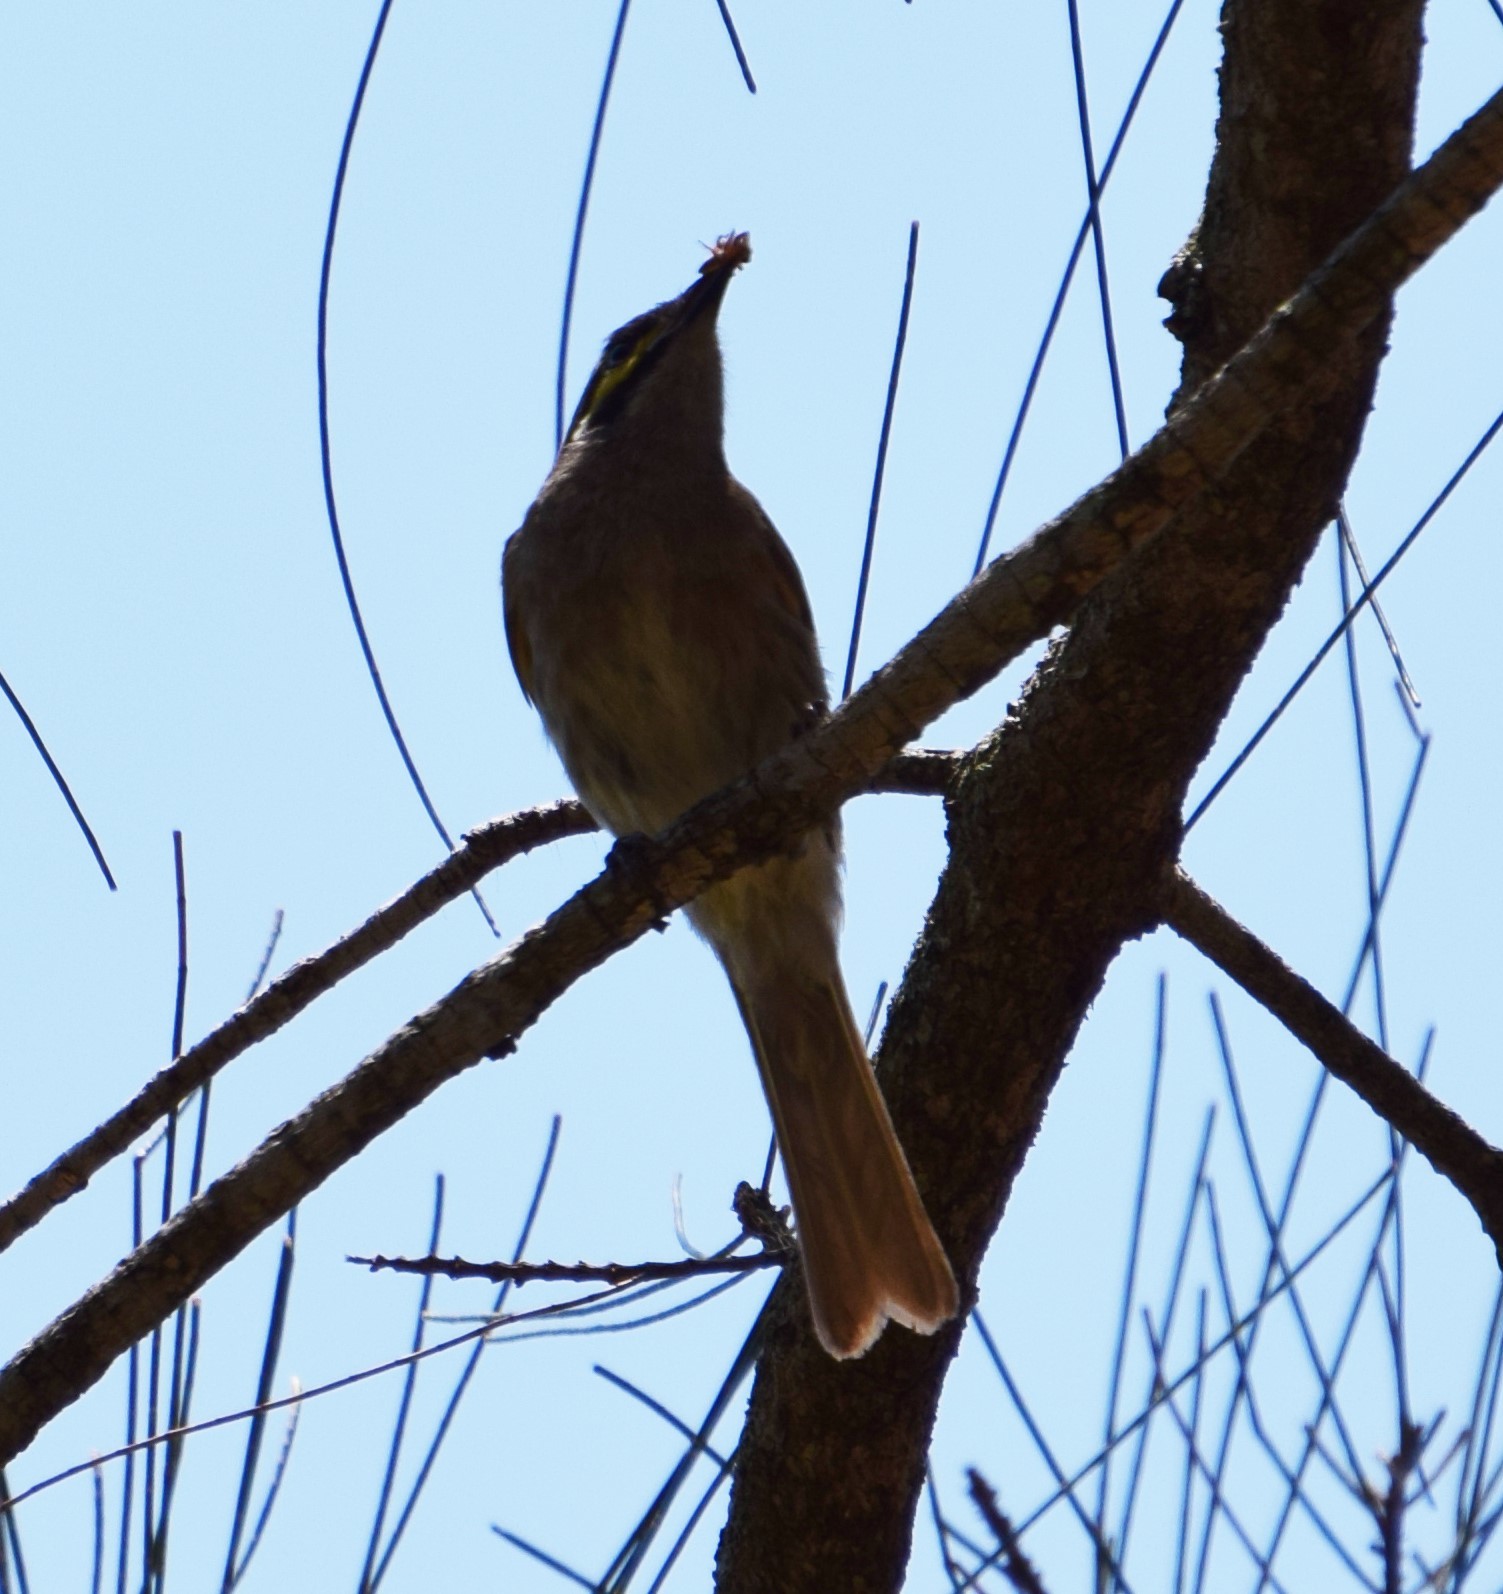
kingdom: Animalia
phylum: Chordata
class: Aves
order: Passeriformes
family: Meliphagidae
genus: Caligavis
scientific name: Caligavis chrysops
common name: Yellow-faced honeyeater
